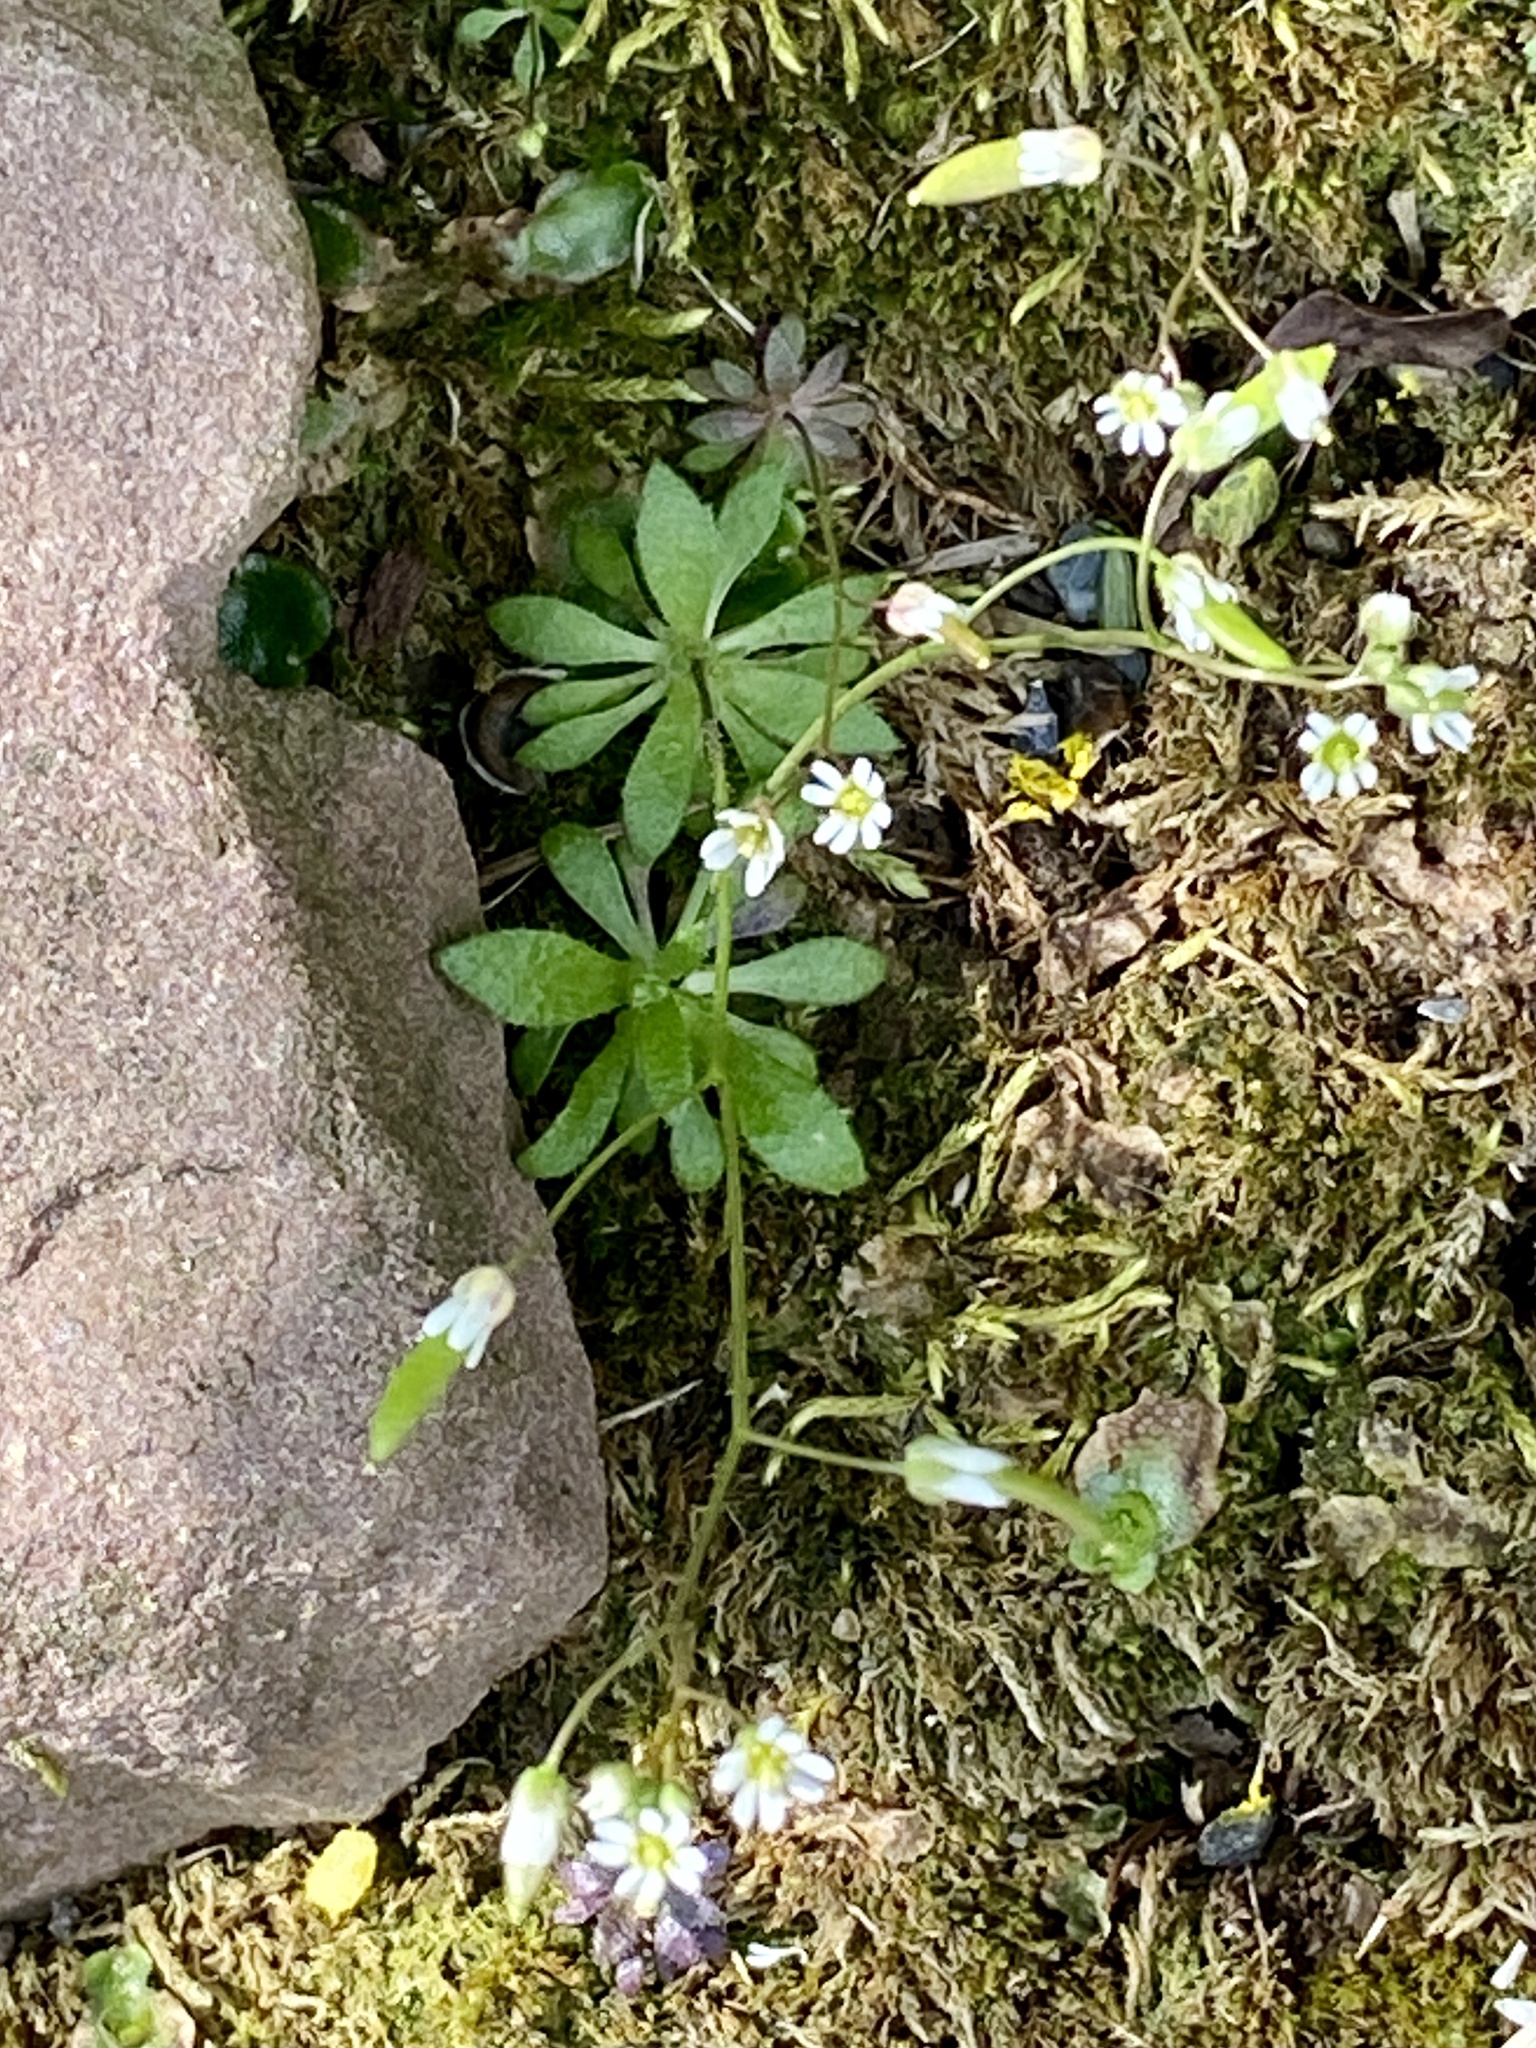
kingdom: Plantae
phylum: Tracheophyta
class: Magnoliopsida
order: Brassicales
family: Brassicaceae
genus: Draba
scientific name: Draba verna
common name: Spring draba
